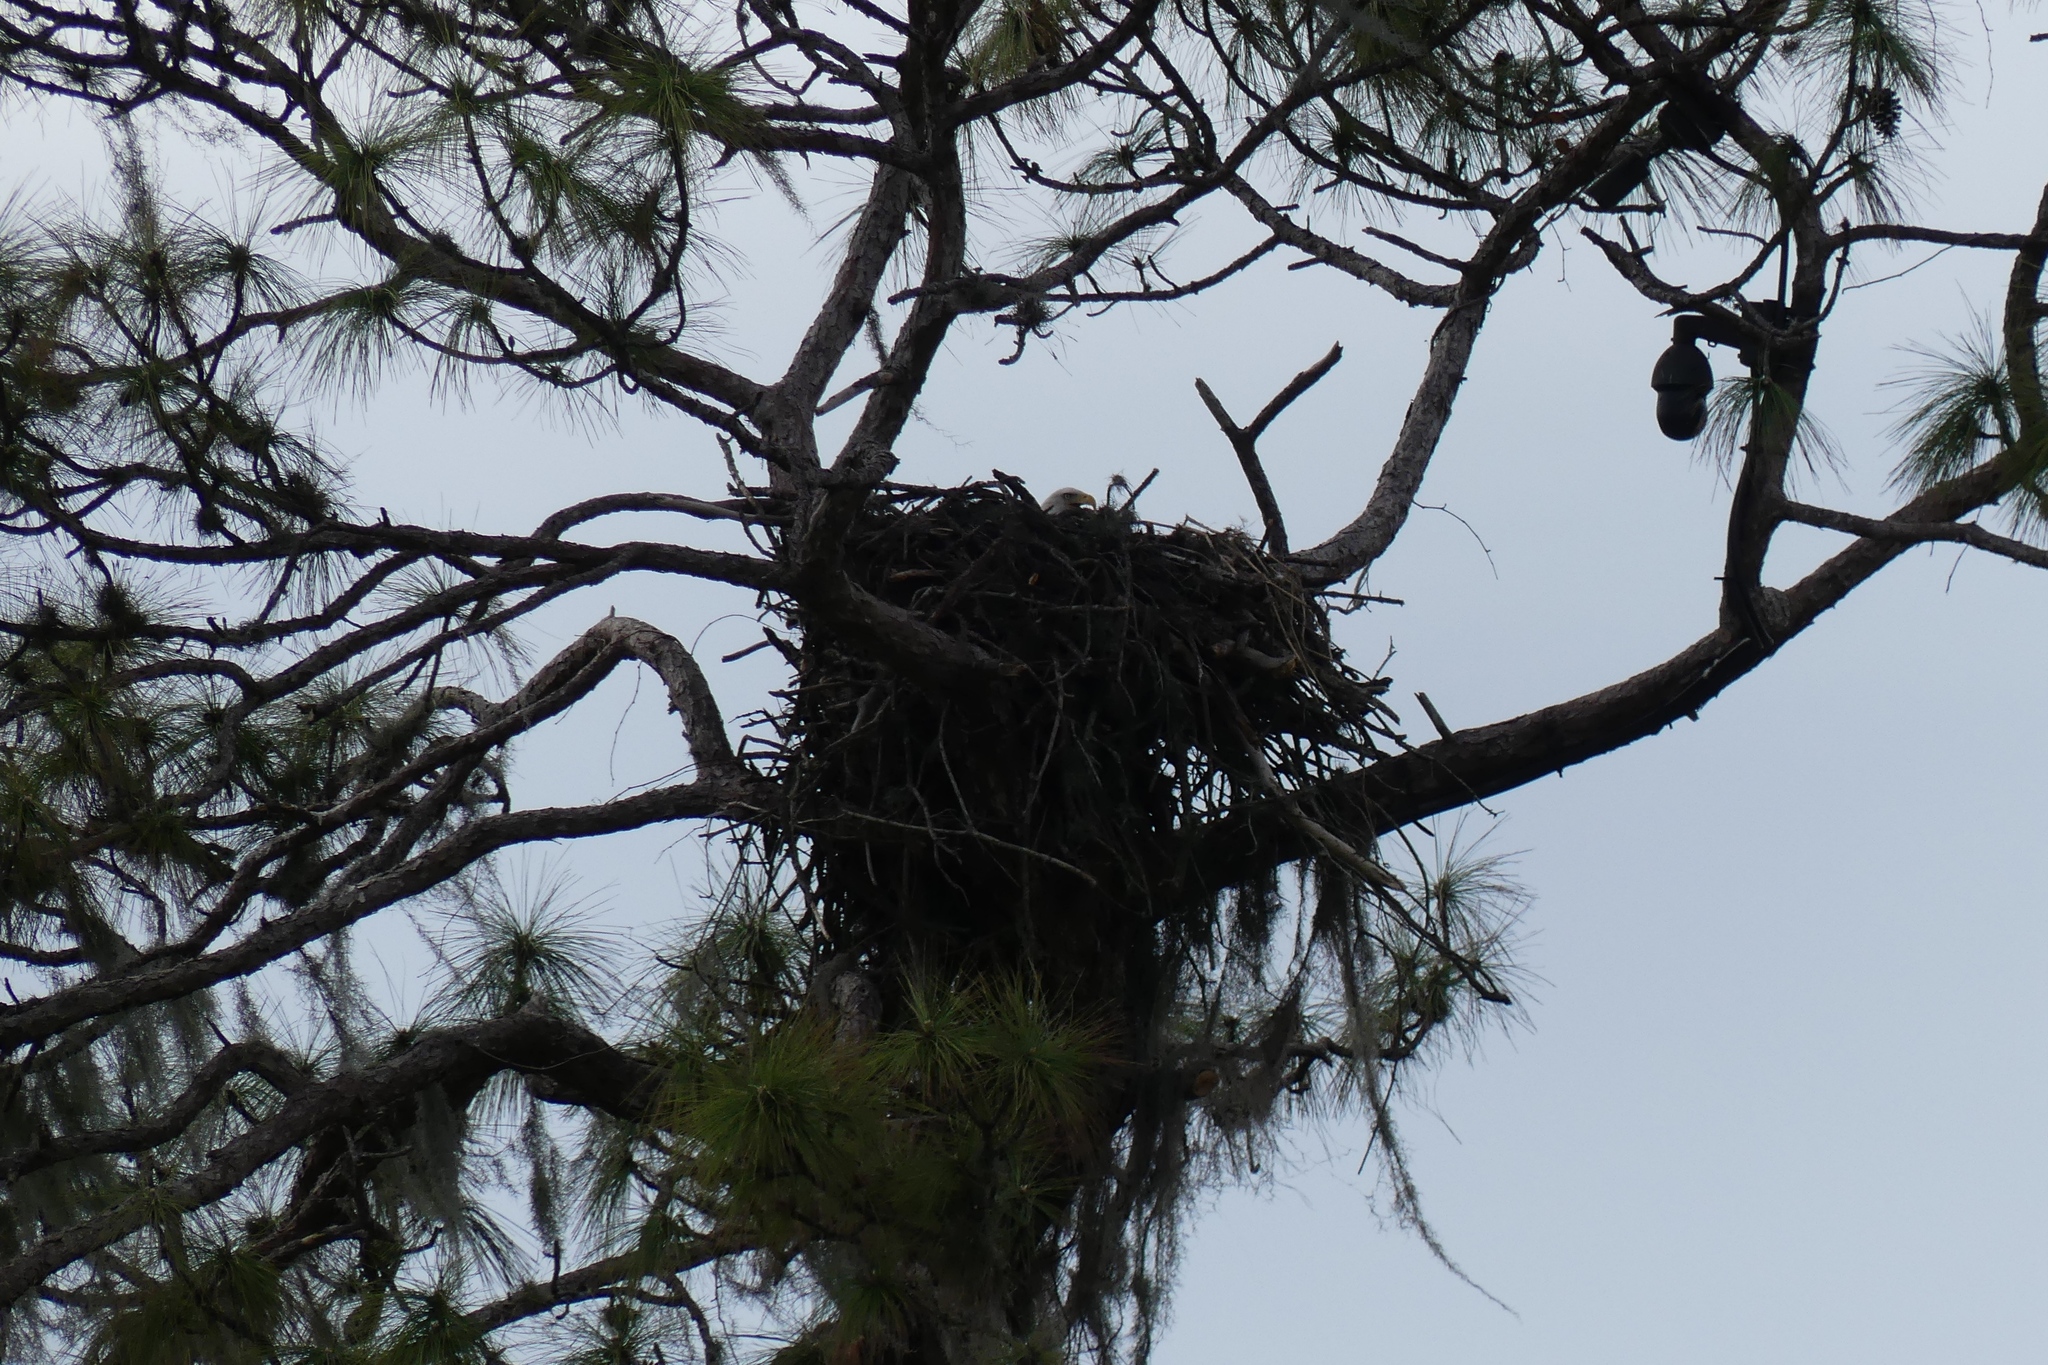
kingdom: Animalia
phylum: Chordata
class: Aves
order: Accipitriformes
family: Accipitridae
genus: Haliaeetus
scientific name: Haliaeetus leucocephalus
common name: Bald eagle
